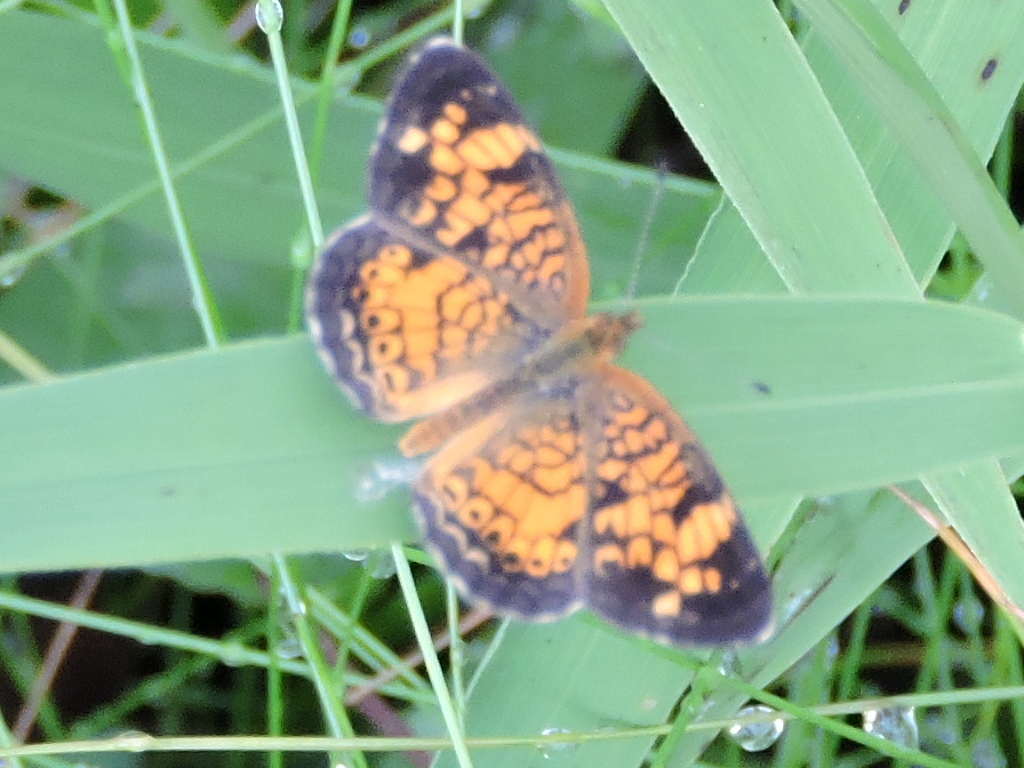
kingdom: Animalia
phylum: Arthropoda
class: Insecta
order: Lepidoptera
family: Nymphalidae
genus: Phyciodes
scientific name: Phyciodes tharos
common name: Pearl crescent
